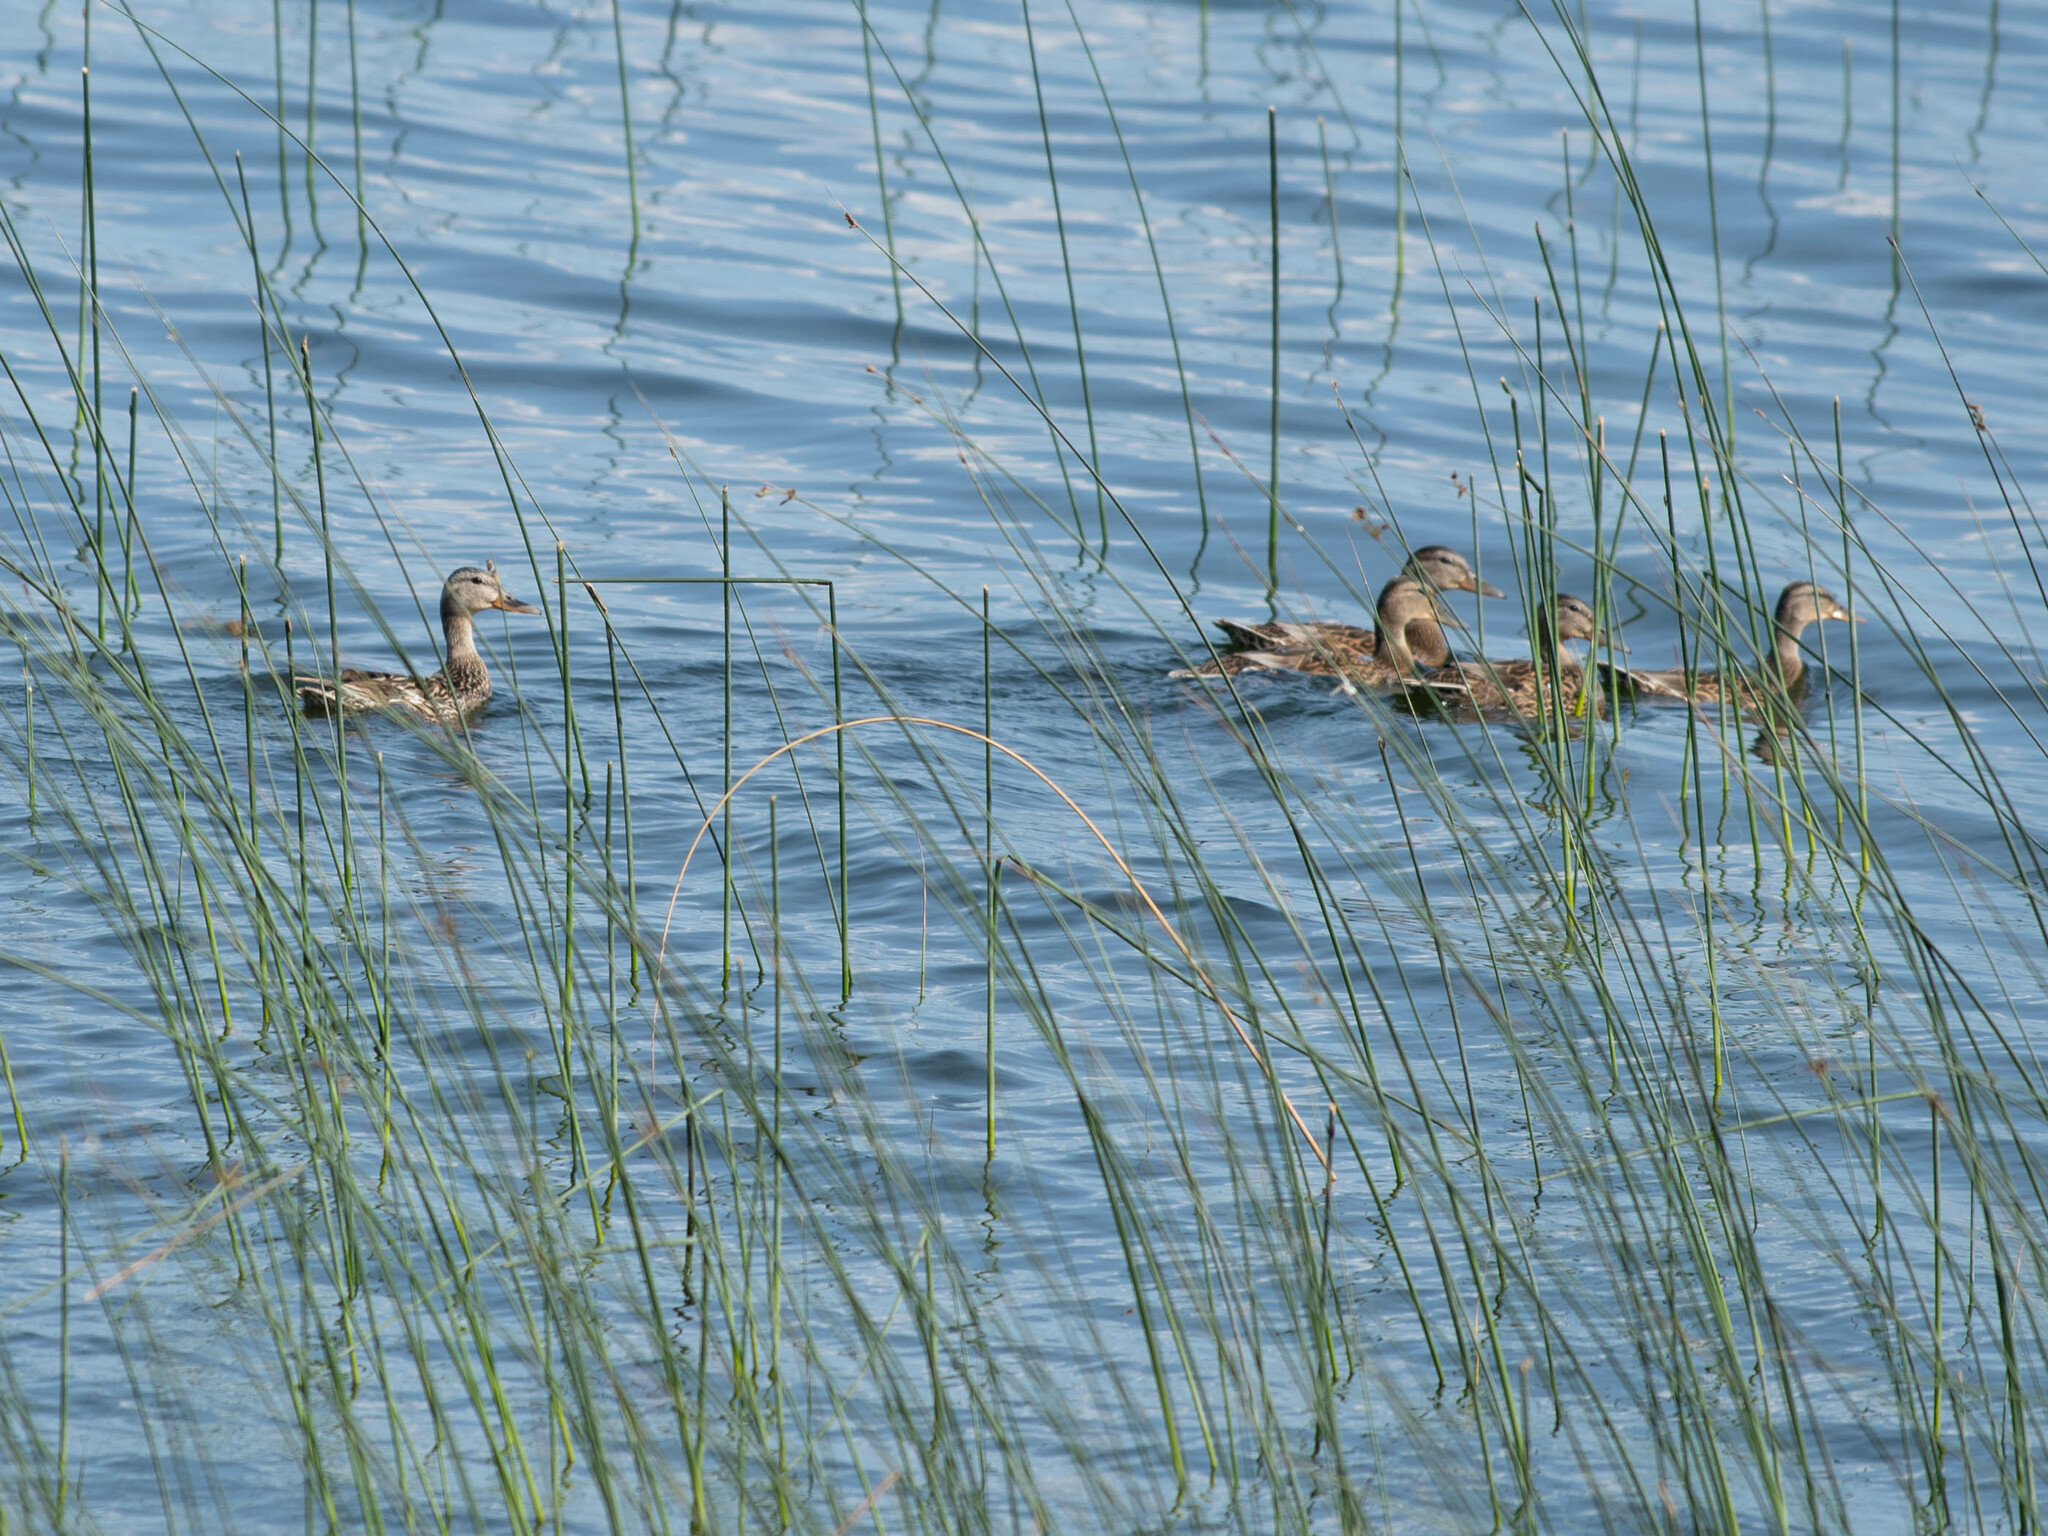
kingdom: Animalia
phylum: Chordata
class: Aves
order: Anseriformes
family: Anatidae
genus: Anas
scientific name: Anas platyrhynchos
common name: Mallard
